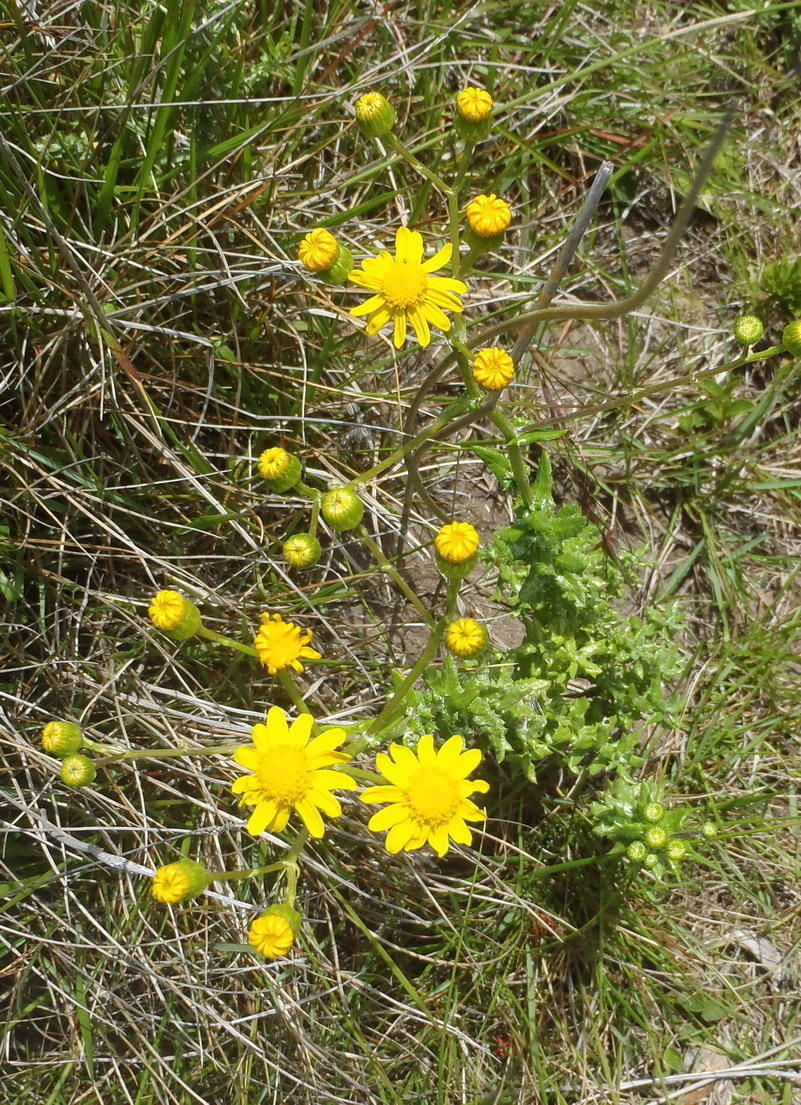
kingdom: Plantae
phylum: Tracheophyta
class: Magnoliopsida
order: Asterales
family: Asteraceae
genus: Senecio
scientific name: Senecio ilicifolius
